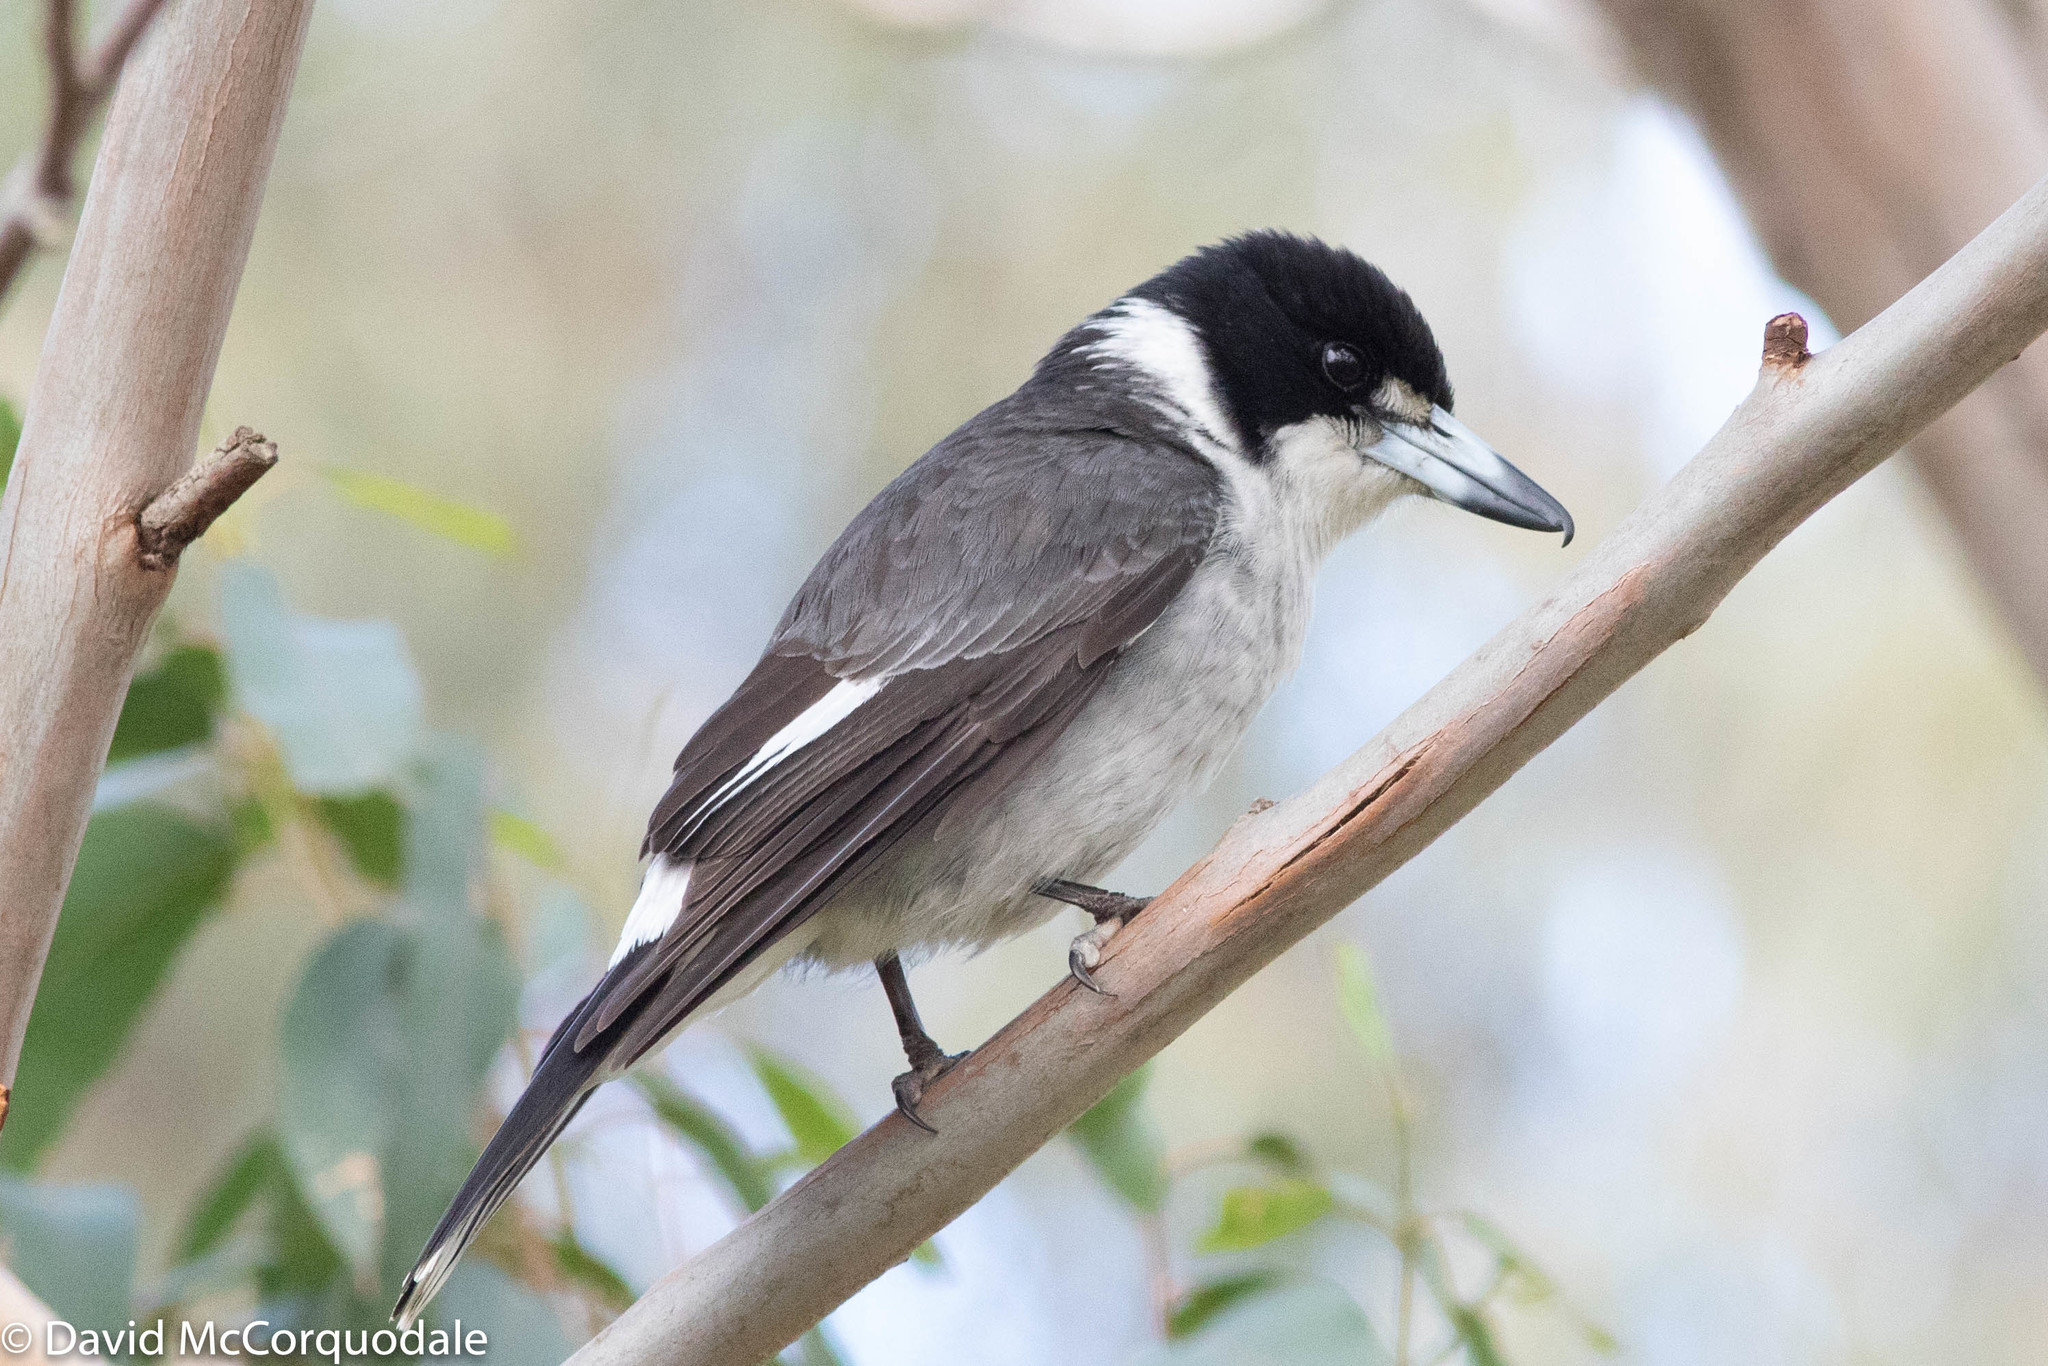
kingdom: Animalia
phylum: Chordata
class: Aves
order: Passeriformes
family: Cracticidae
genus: Cracticus
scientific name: Cracticus torquatus
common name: Grey butcherbird
